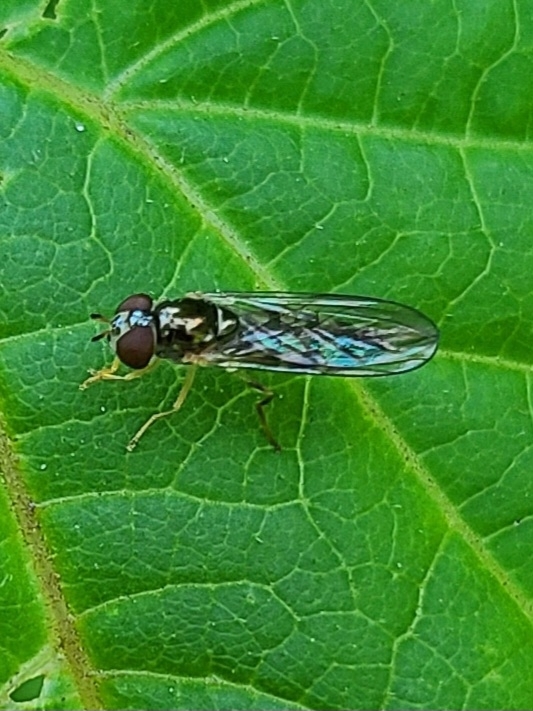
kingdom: Animalia
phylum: Arthropoda
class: Insecta
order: Diptera
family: Syrphidae
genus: Melanostoma
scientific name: Melanostoma mellina
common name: Hover fly
